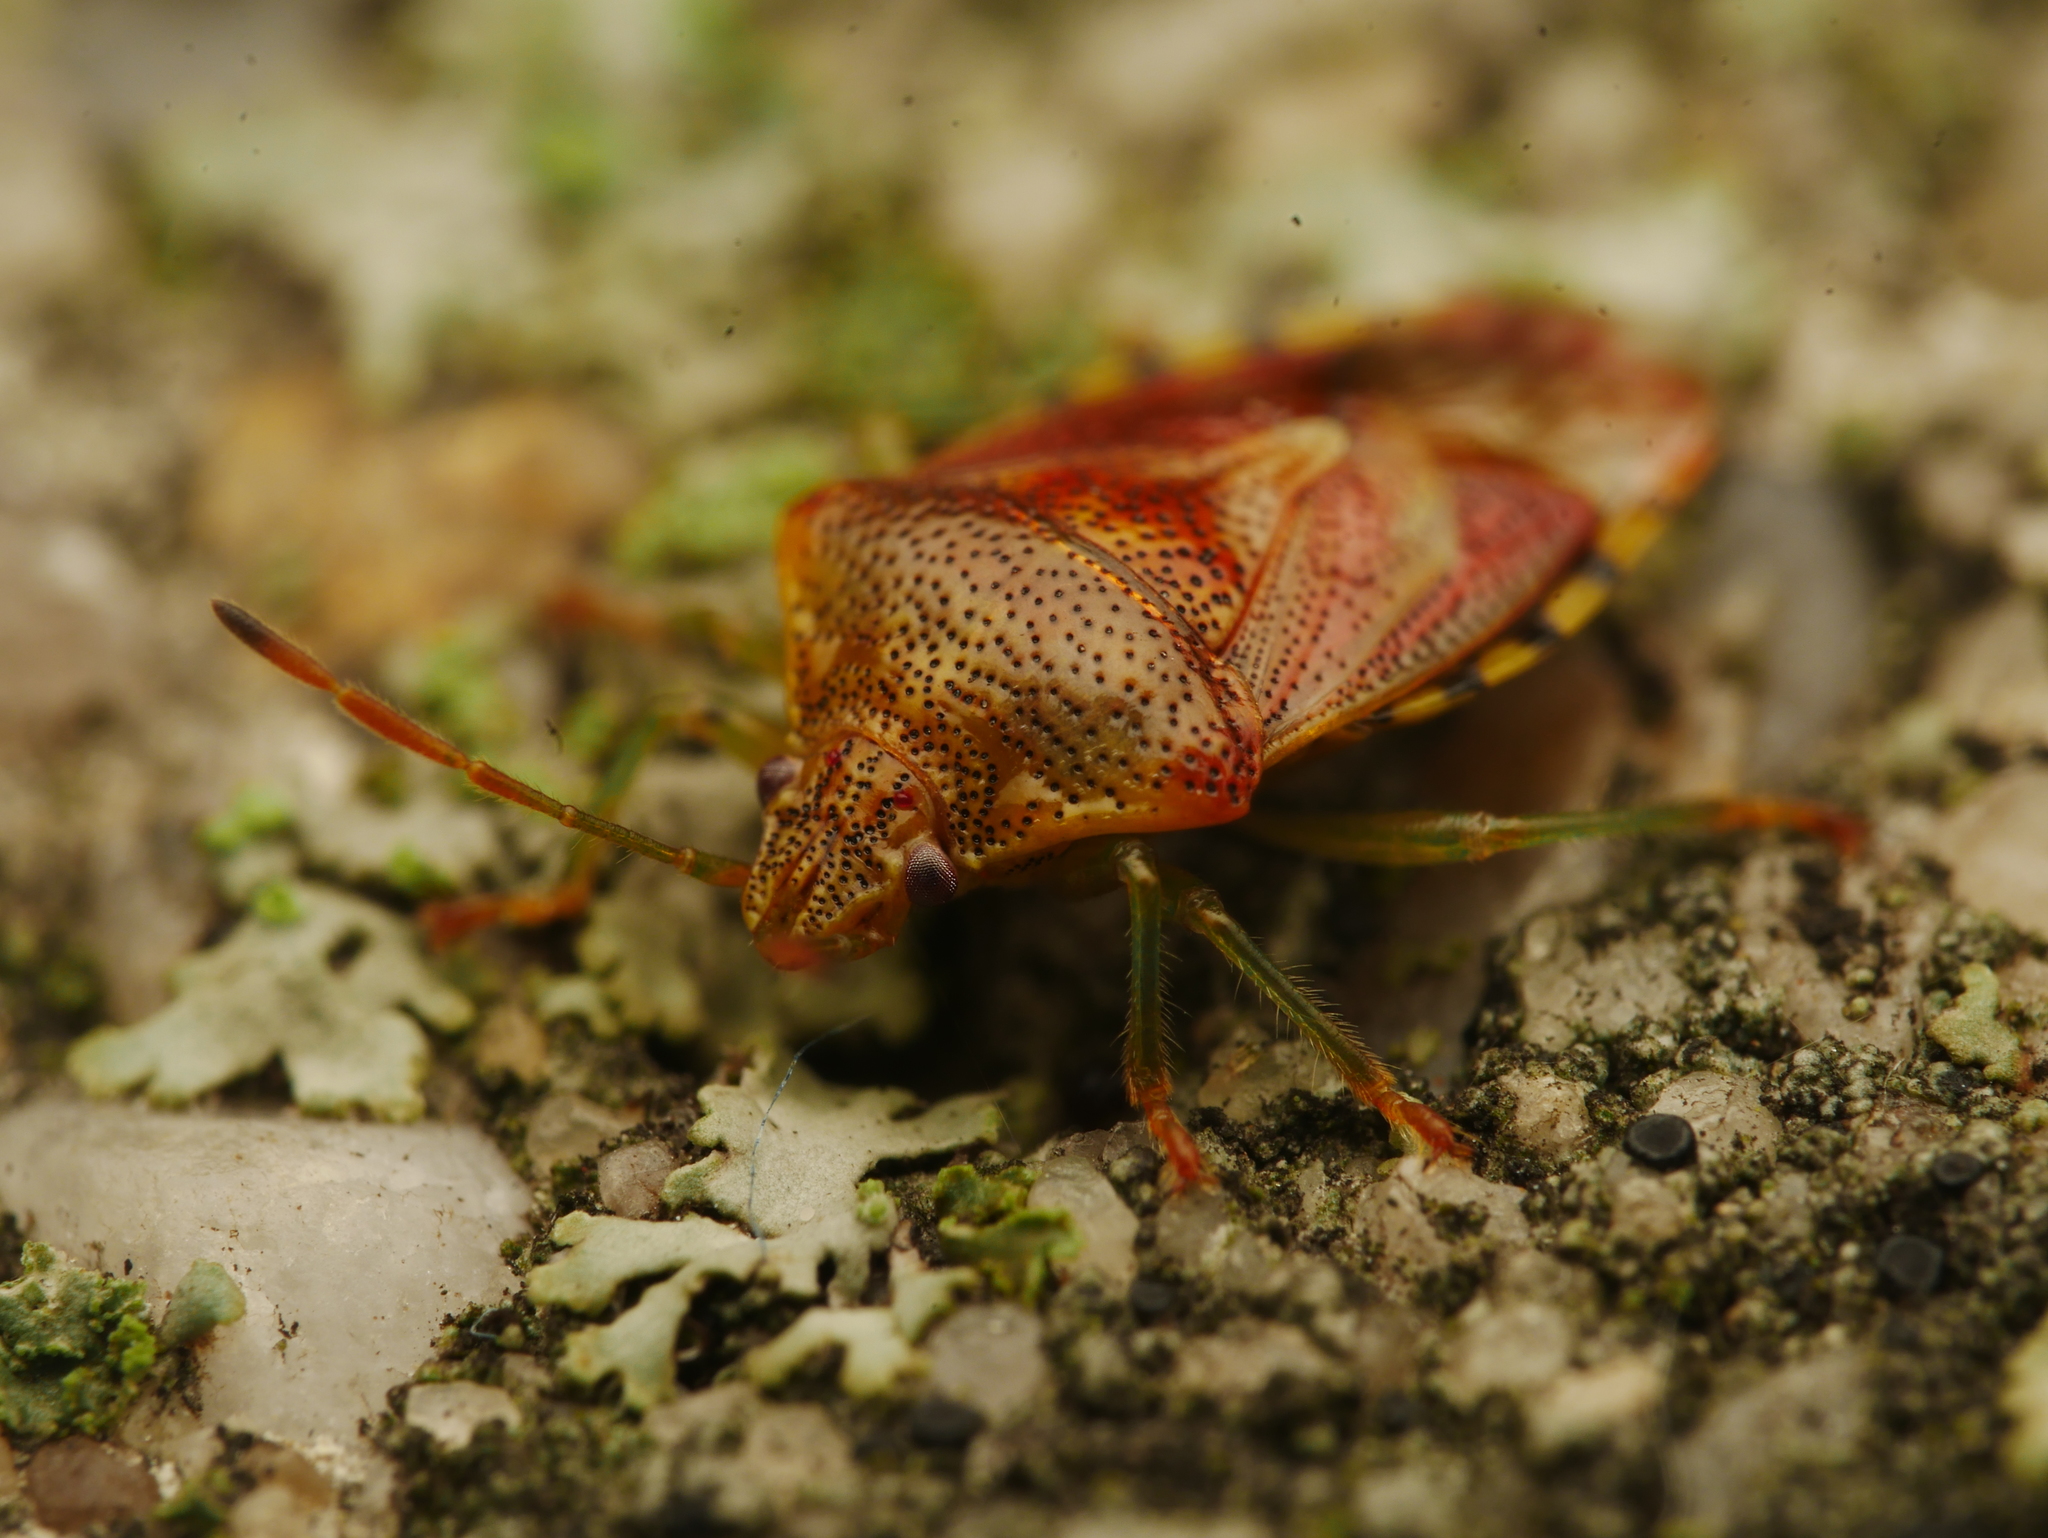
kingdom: Animalia
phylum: Arthropoda
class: Insecta
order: Hemiptera
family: Acanthosomatidae
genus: Elasmucha
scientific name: Elasmucha grisea
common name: Parent bug
